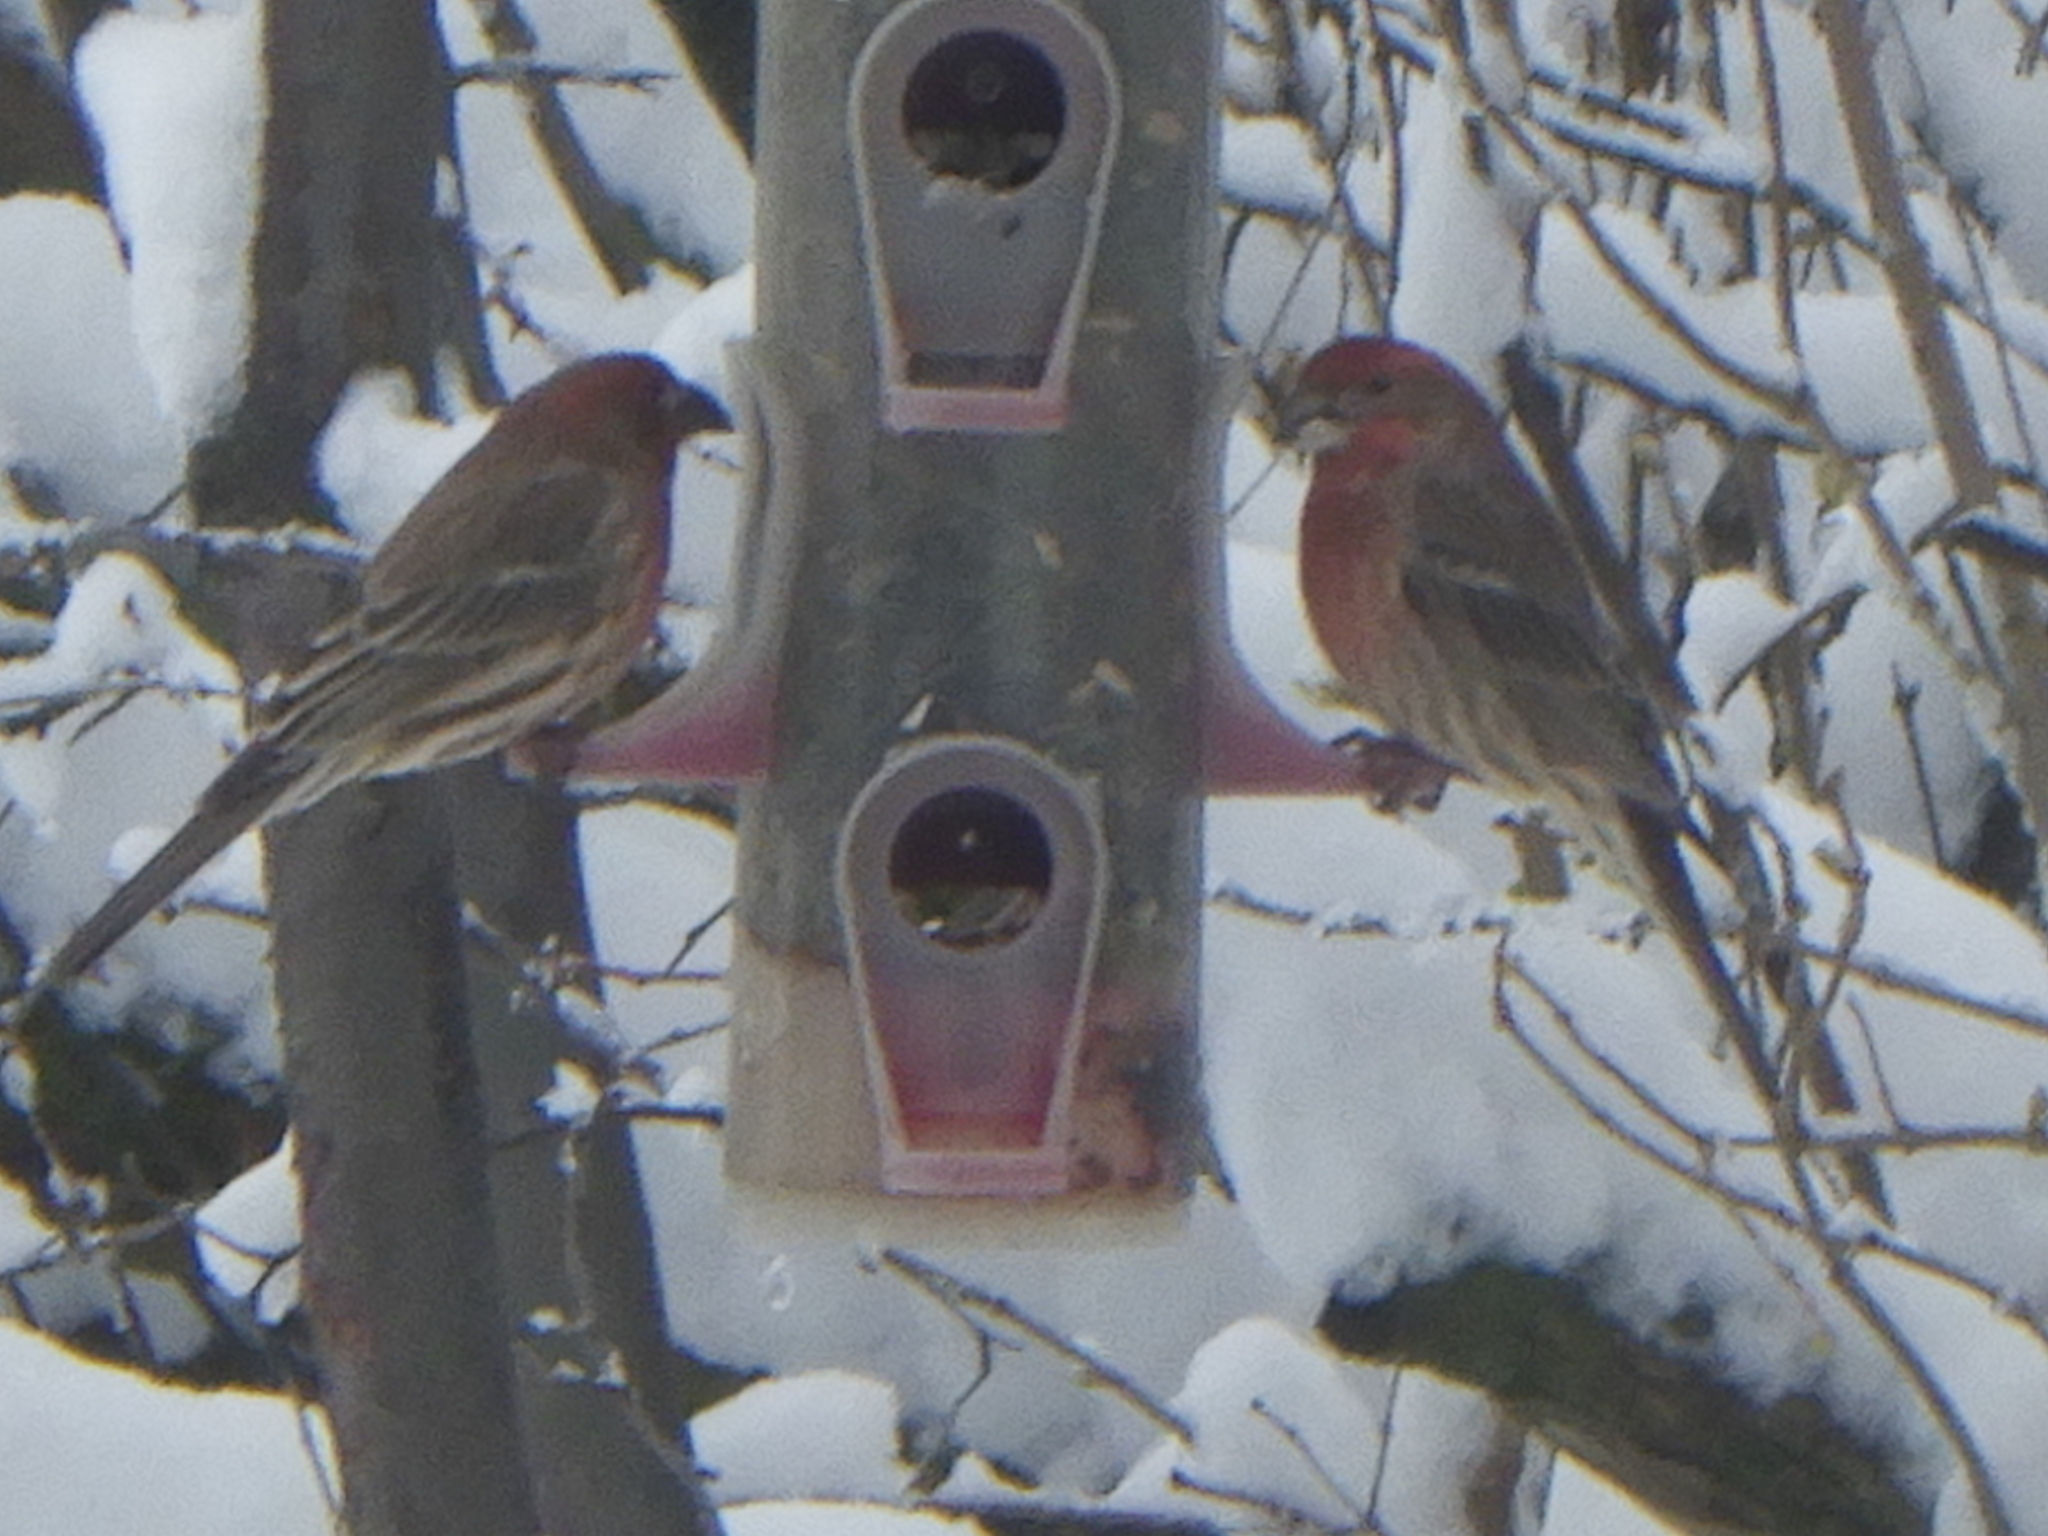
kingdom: Animalia
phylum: Chordata
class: Aves
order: Passeriformes
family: Fringillidae
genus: Haemorhous
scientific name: Haemorhous mexicanus
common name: House finch
